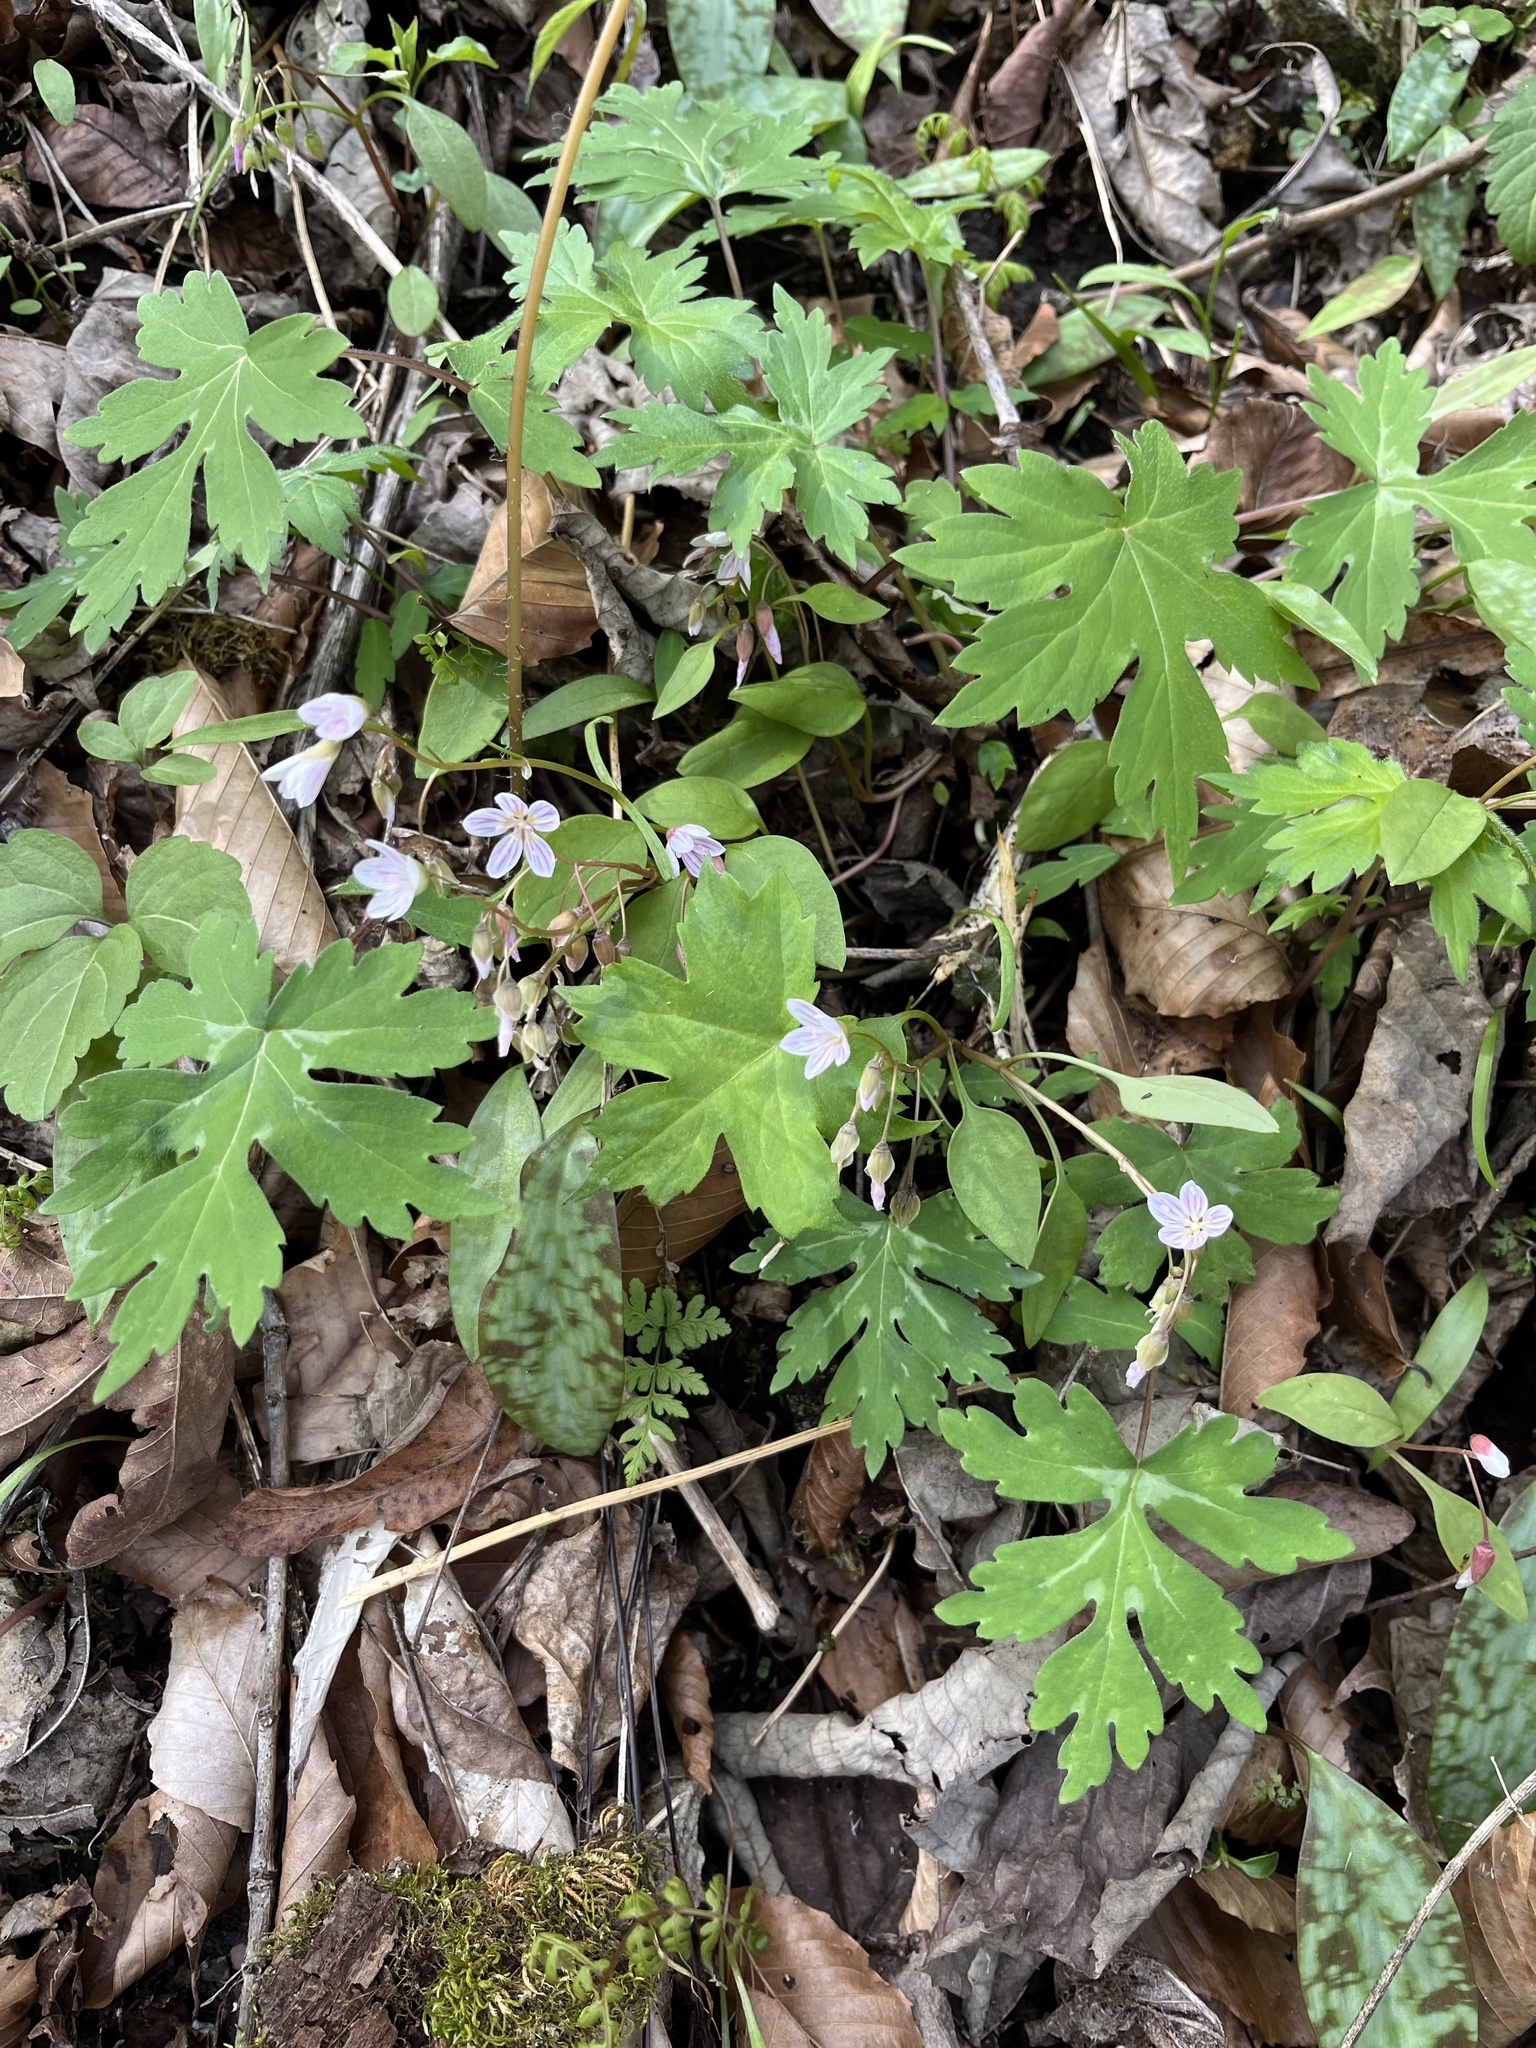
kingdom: Plantae
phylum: Tracheophyta
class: Magnoliopsida
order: Caryophyllales
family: Montiaceae
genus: Claytonia
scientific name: Claytonia caroliniana
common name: Carolina spring beauty
